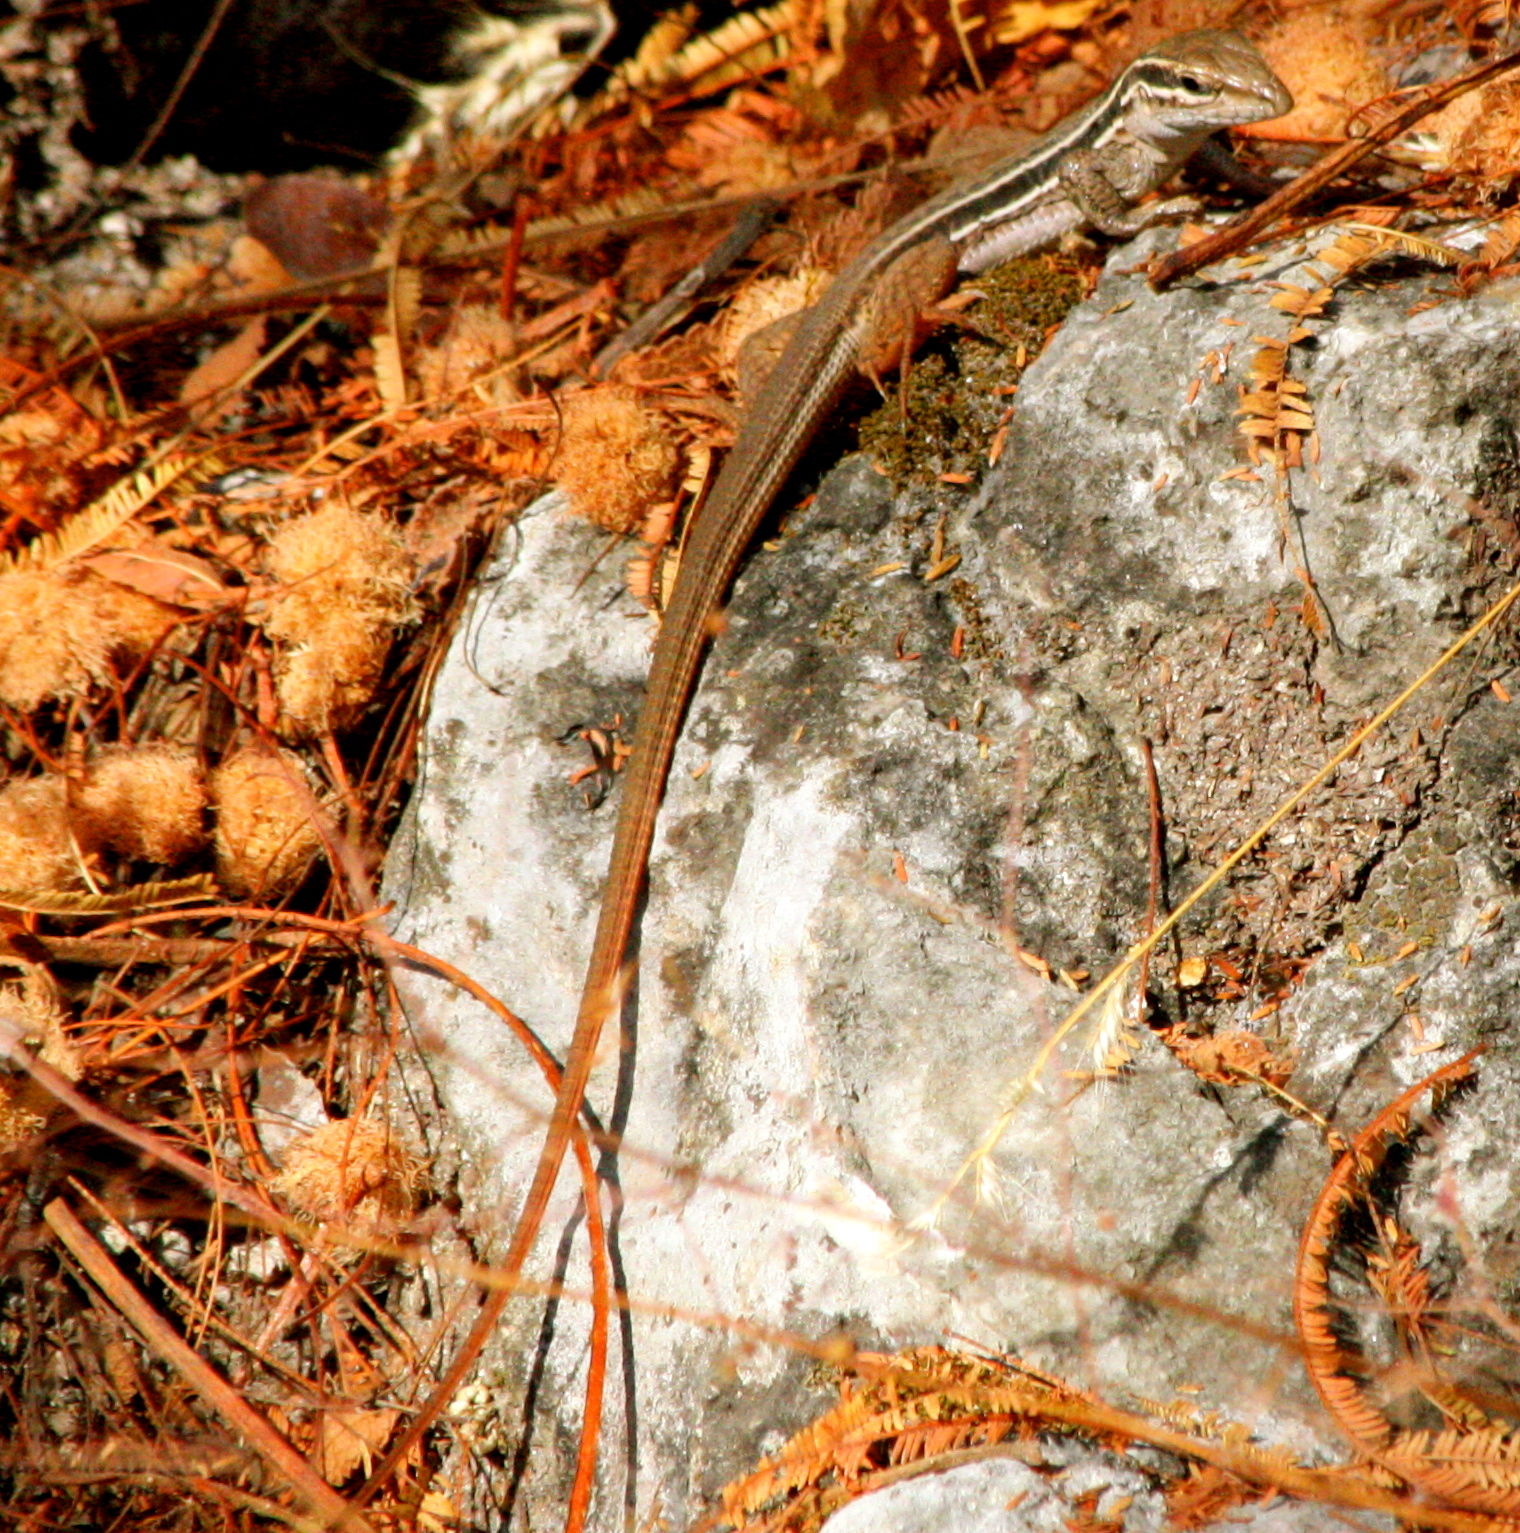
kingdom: Animalia
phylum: Chordata
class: Squamata
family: Teiidae
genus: Aspidoscelis
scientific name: Aspidoscelis sackii
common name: Giant spotted whiptail [gigas]
